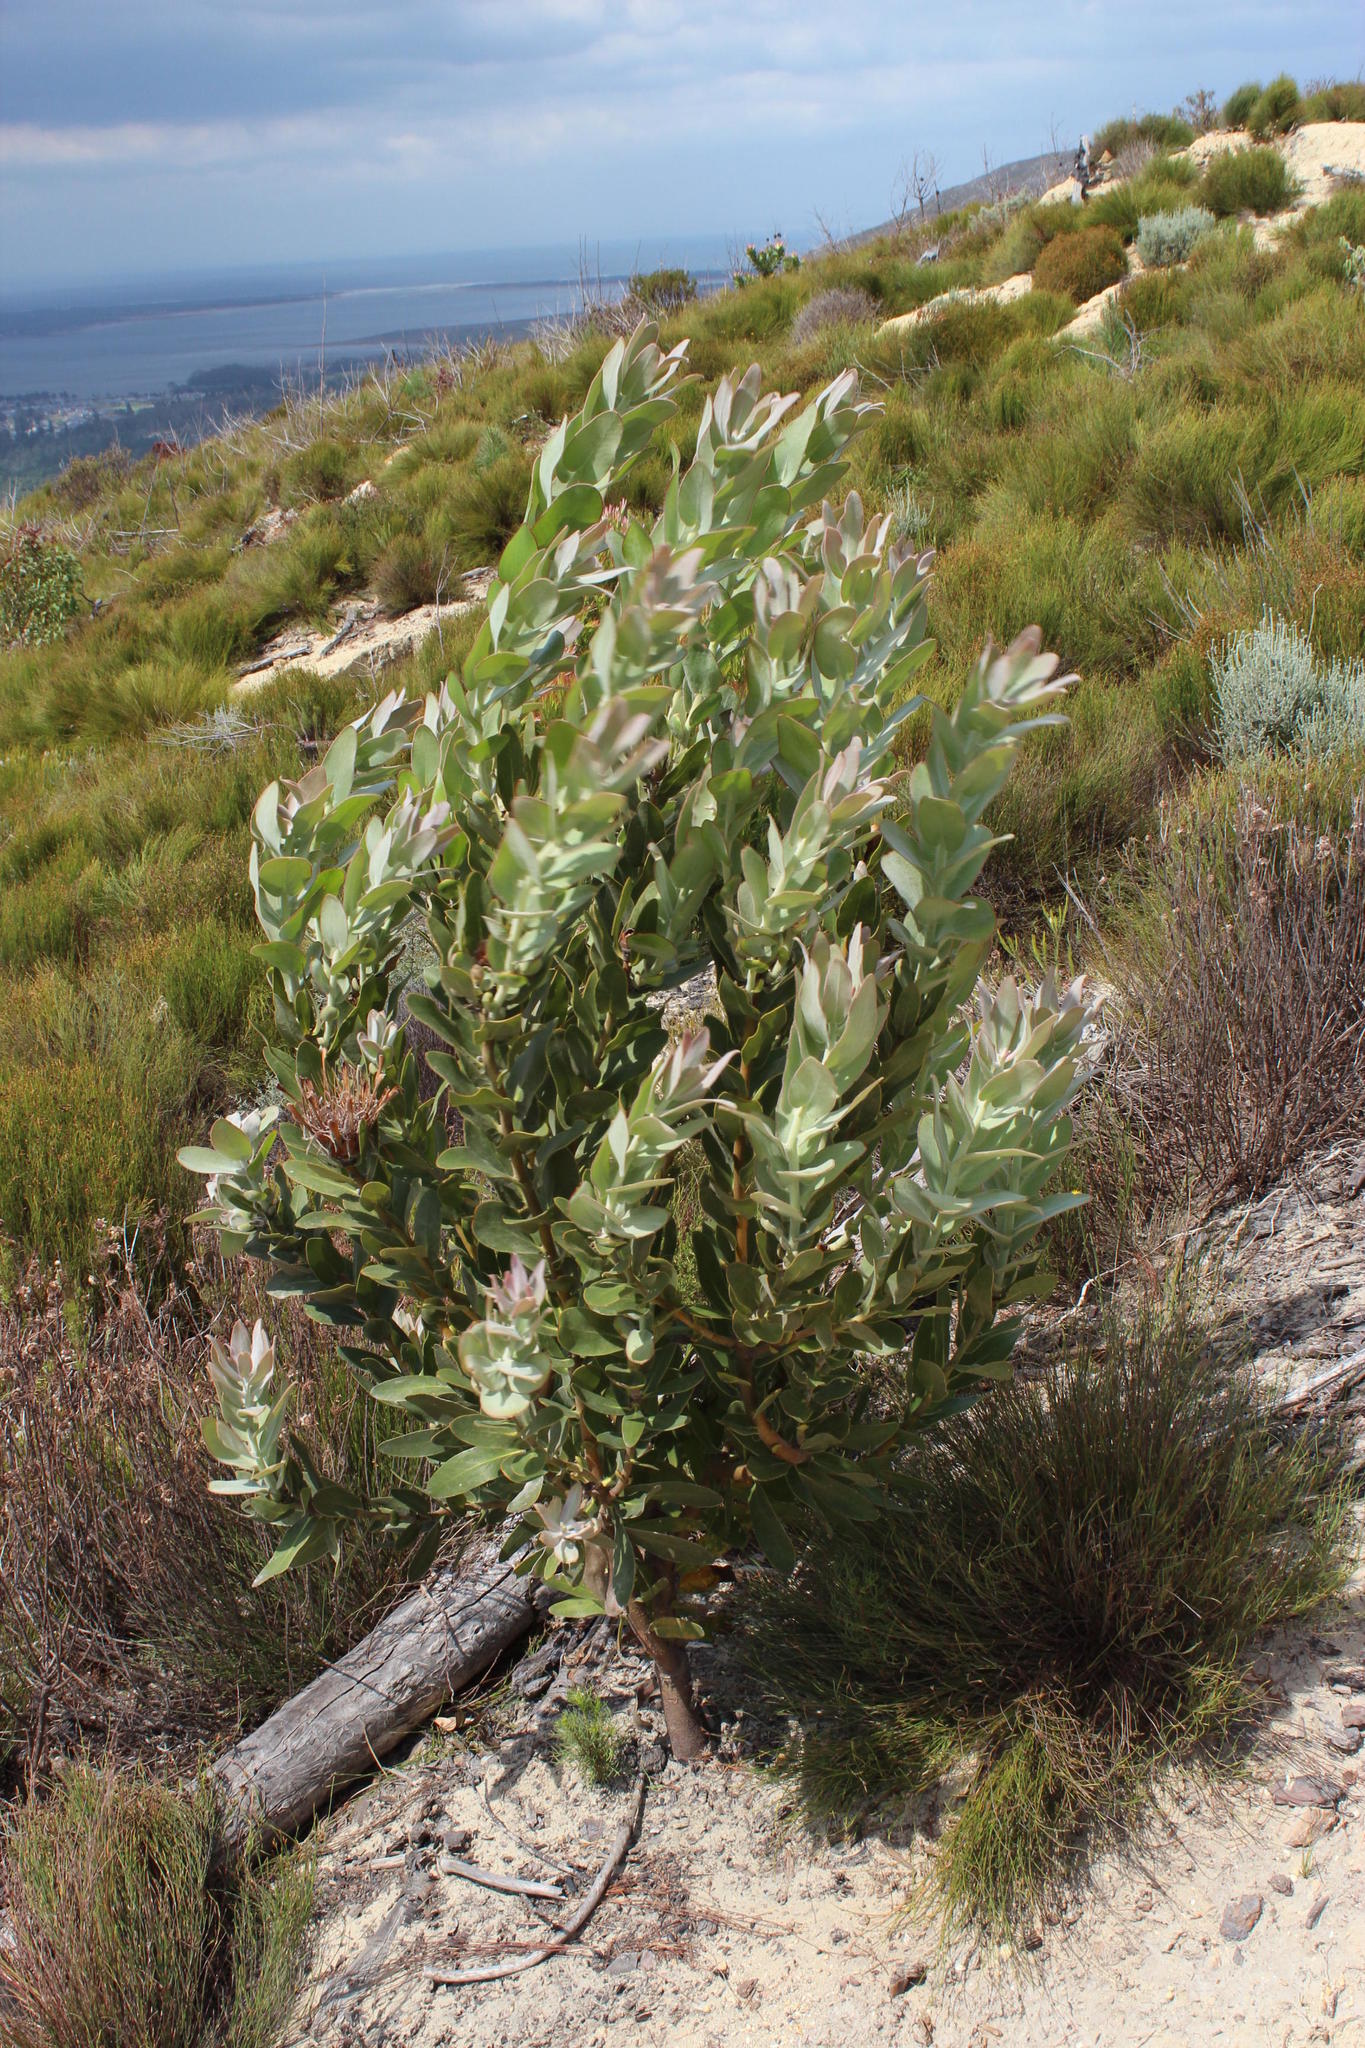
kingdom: Plantae
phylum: Tracheophyta
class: Magnoliopsida
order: Proteales
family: Proteaceae
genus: Protea
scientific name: Protea compacta
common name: Bot river protea
